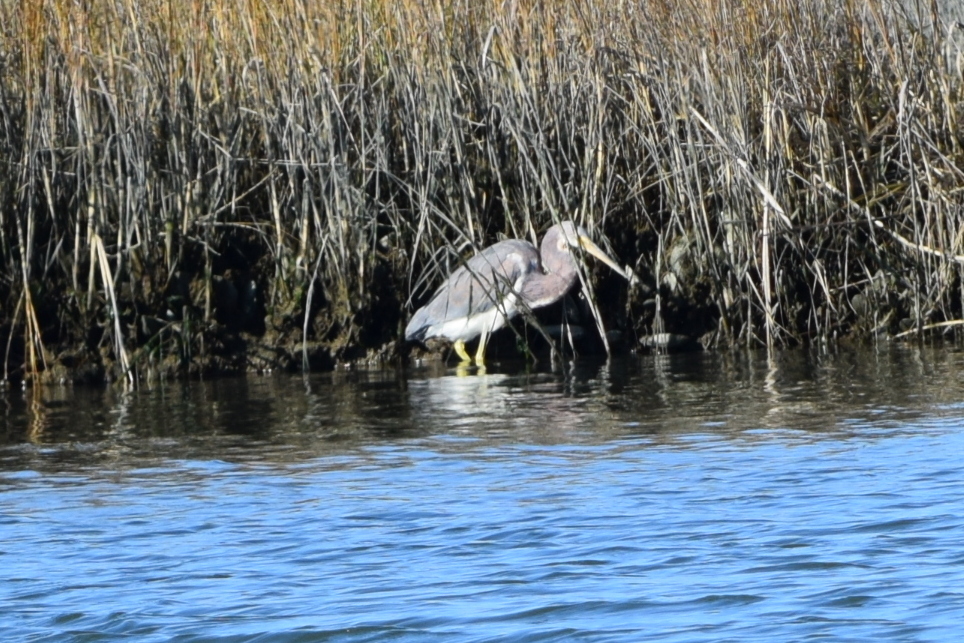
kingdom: Animalia
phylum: Chordata
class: Aves
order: Pelecaniformes
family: Ardeidae
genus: Egretta
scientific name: Egretta tricolor
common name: Tricolored heron
